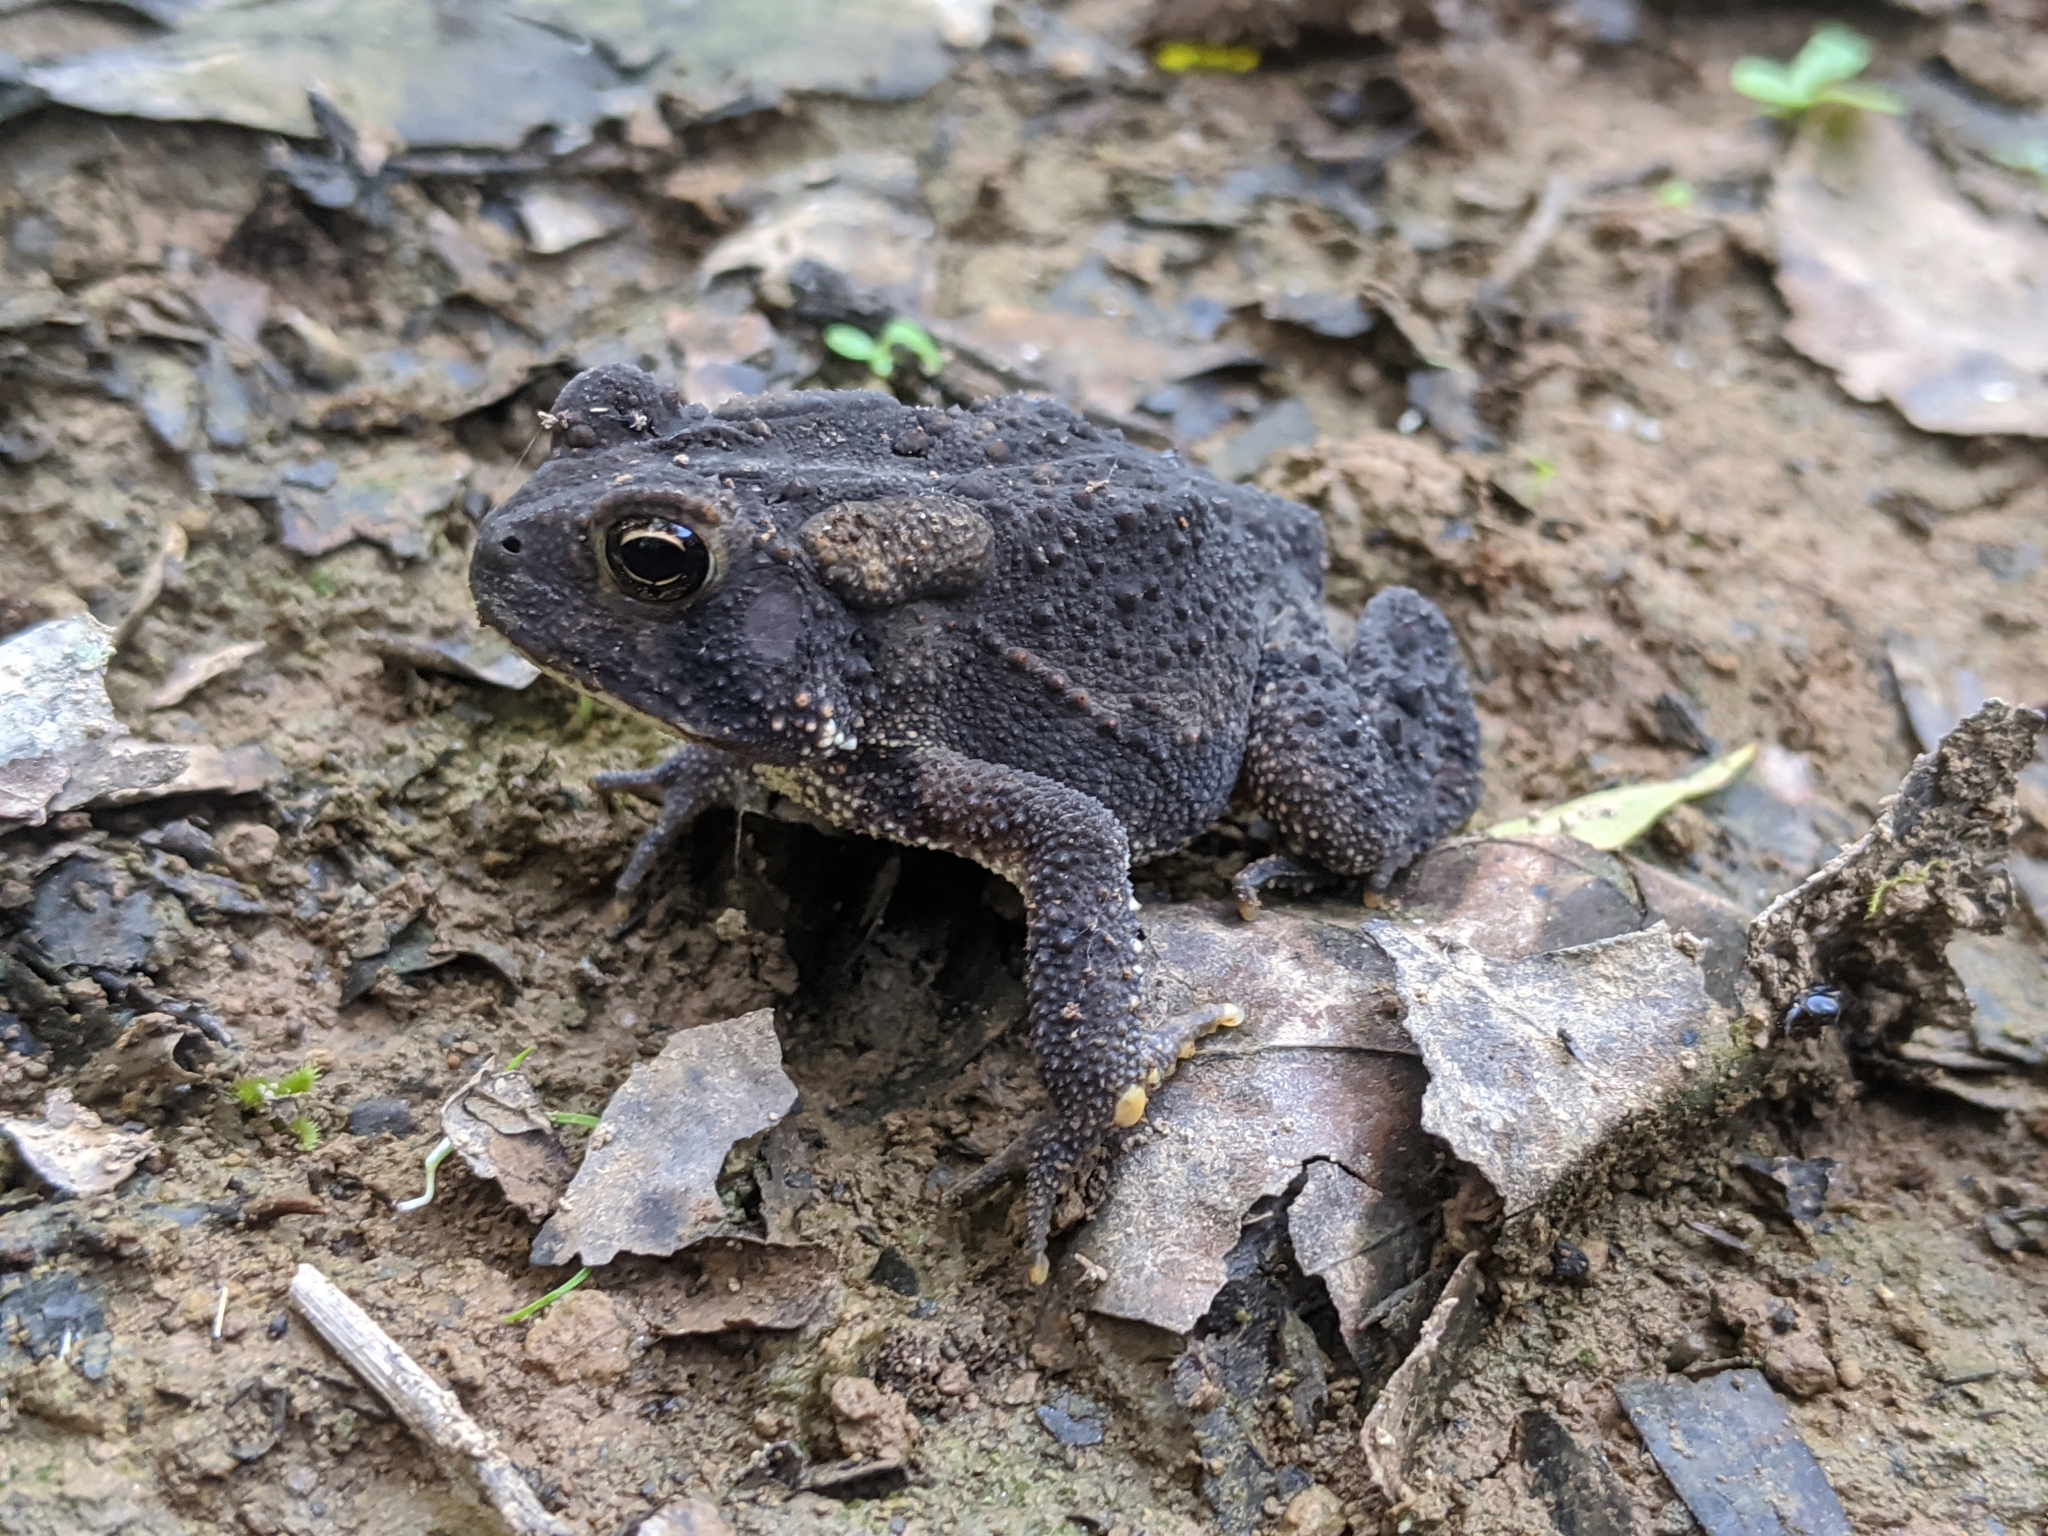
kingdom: Animalia
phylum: Chordata
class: Amphibia
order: Anura
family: Bufonidae
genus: Anaxyrus
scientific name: Anaxyrus americanus
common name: American toad
